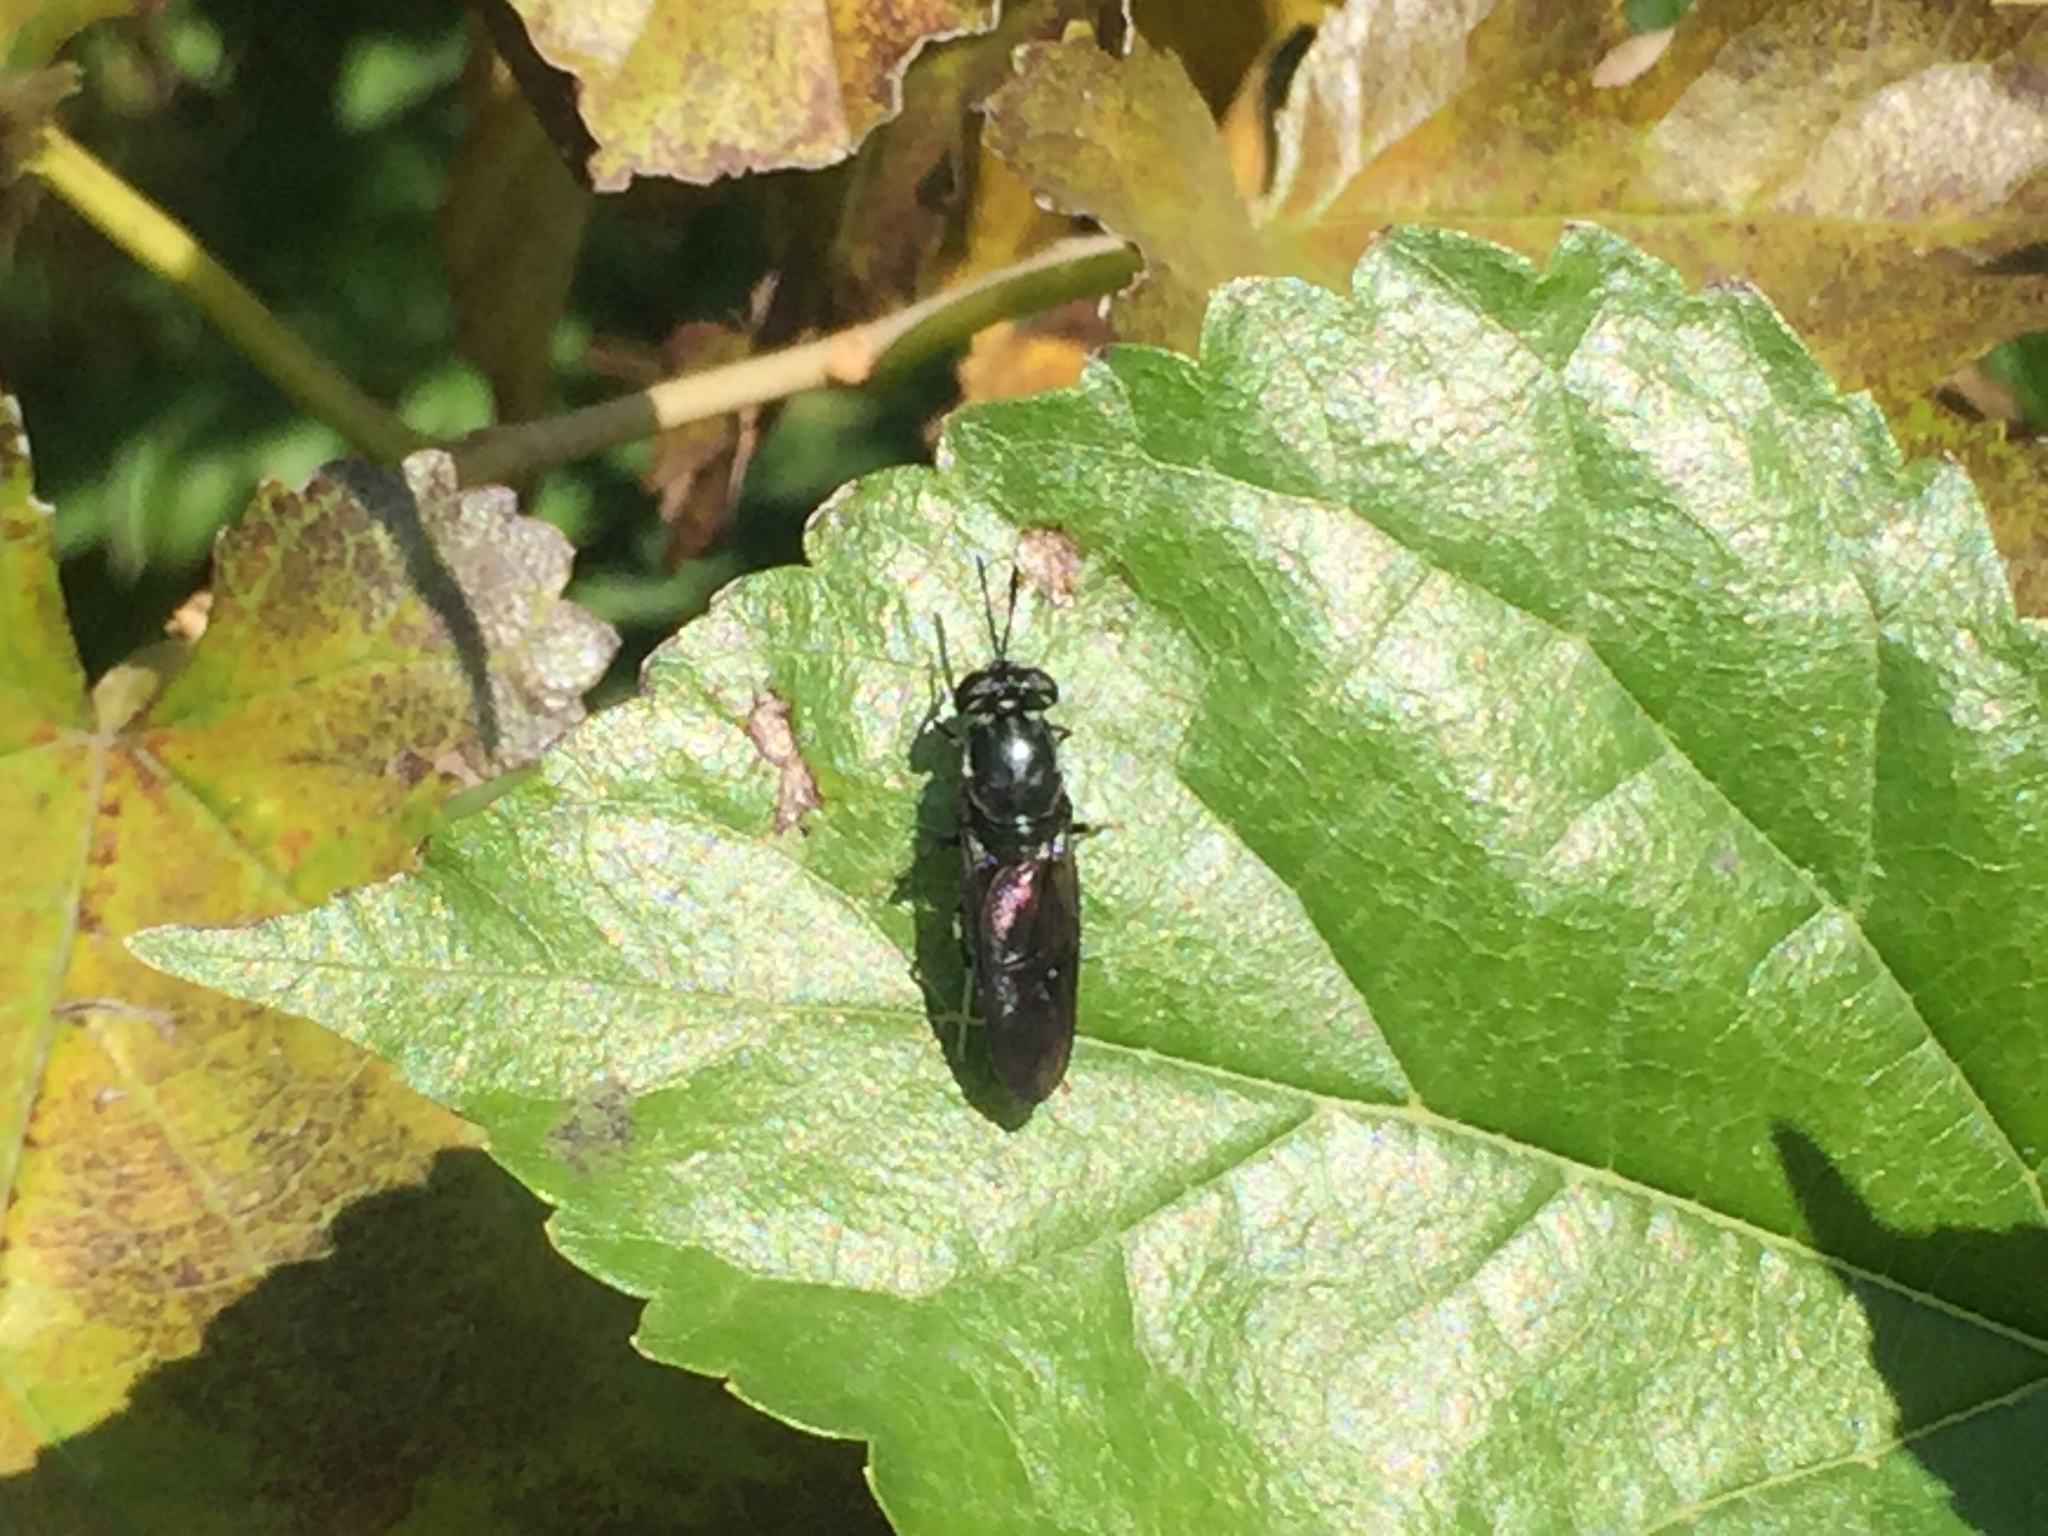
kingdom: Animalia
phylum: Arthropoda
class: Insecta
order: Diptera
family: Stratiomyidae
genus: Hermetia
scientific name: Hermetia illucens
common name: Black soldier fly
